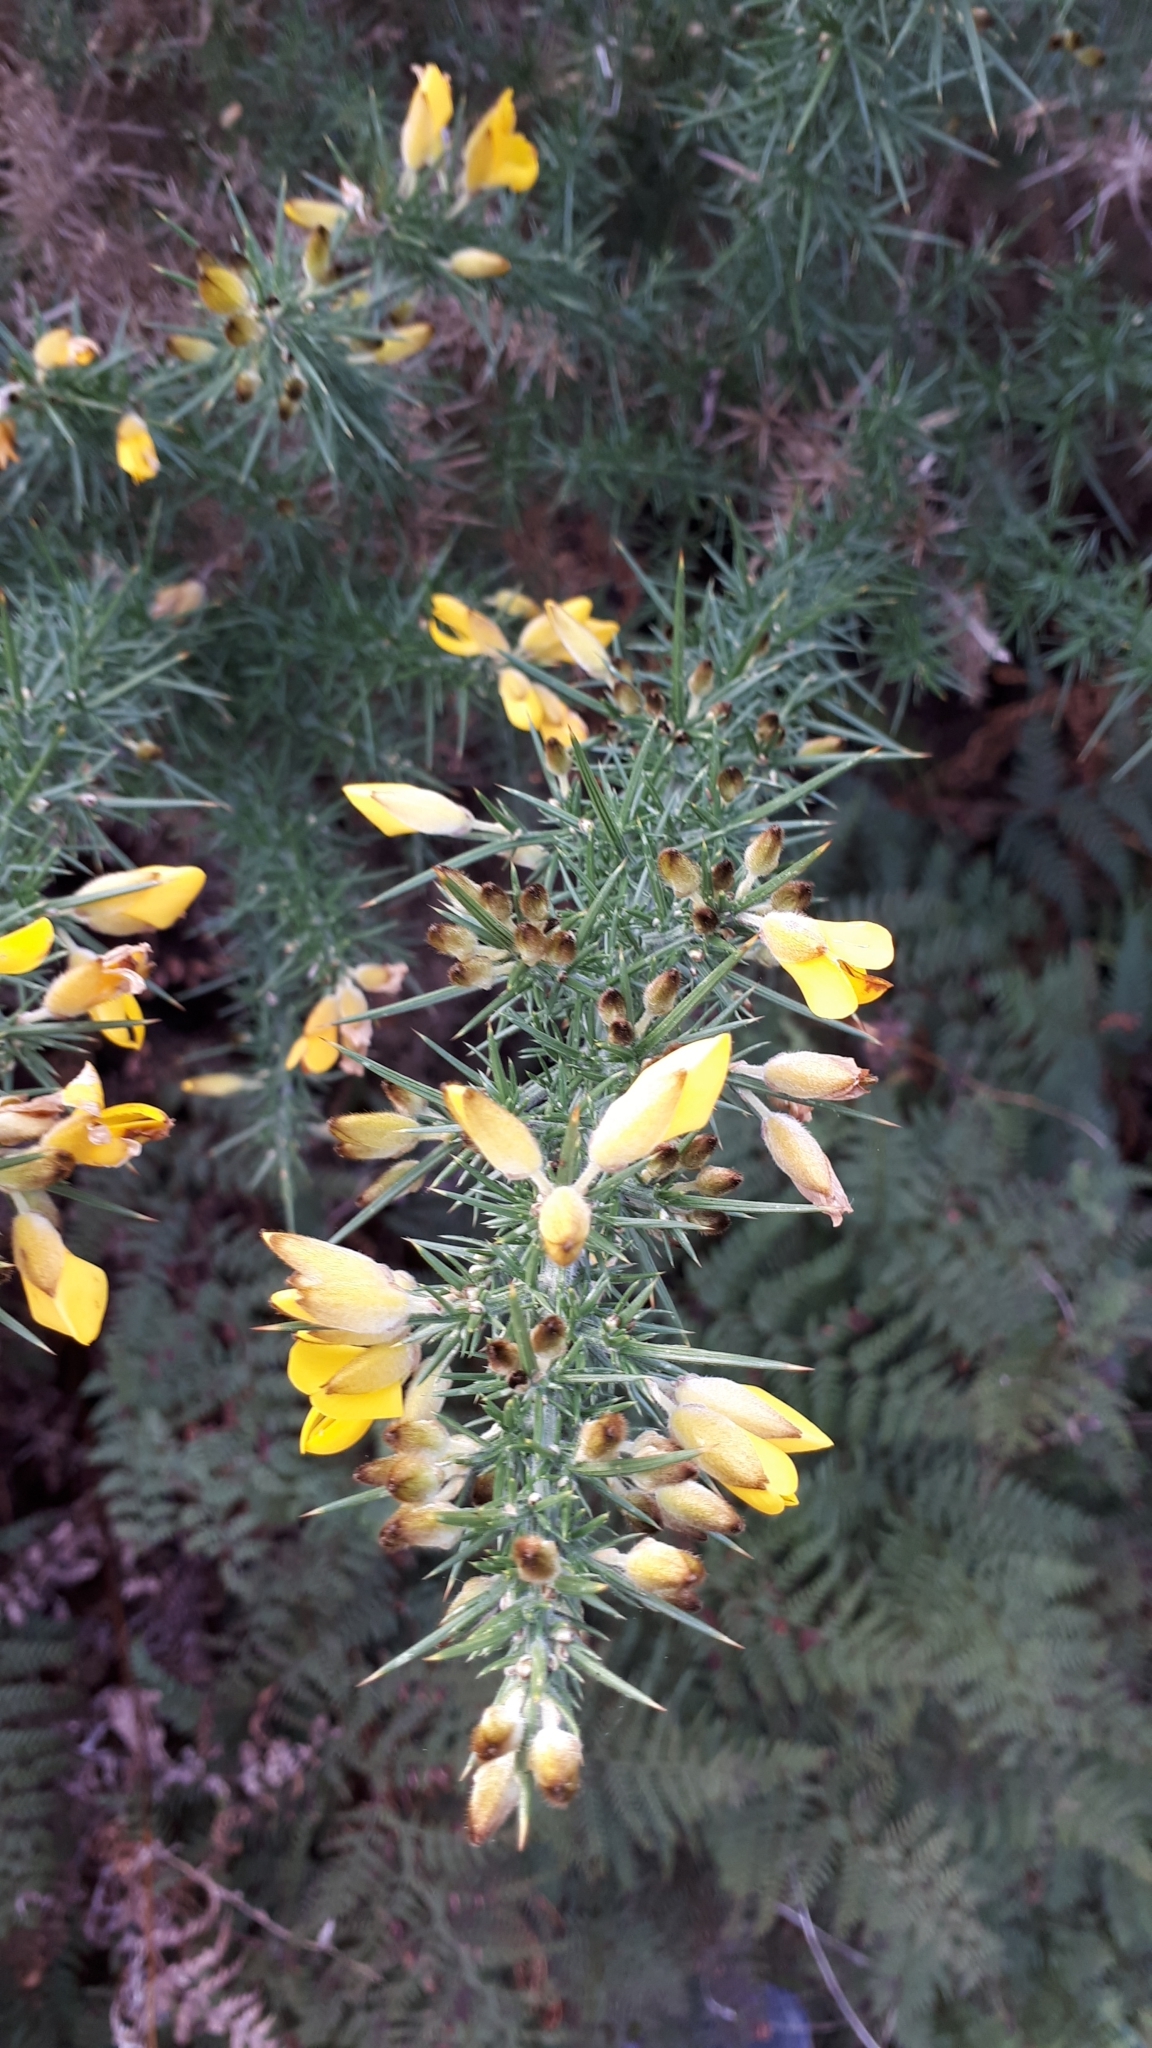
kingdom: Plantae
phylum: Tracheophyta
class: Magnoliopsida
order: Fabales
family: Fabaceae
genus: Ulex
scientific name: Ulex europaeus
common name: Common gorse
